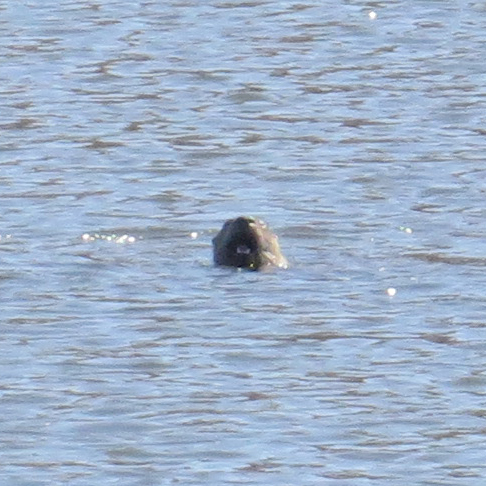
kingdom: Animalia
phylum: Chordata
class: Mammalia
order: Carnivora
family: Mustelidae
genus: Lontra
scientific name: Lontra canadensis
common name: North american river otter
